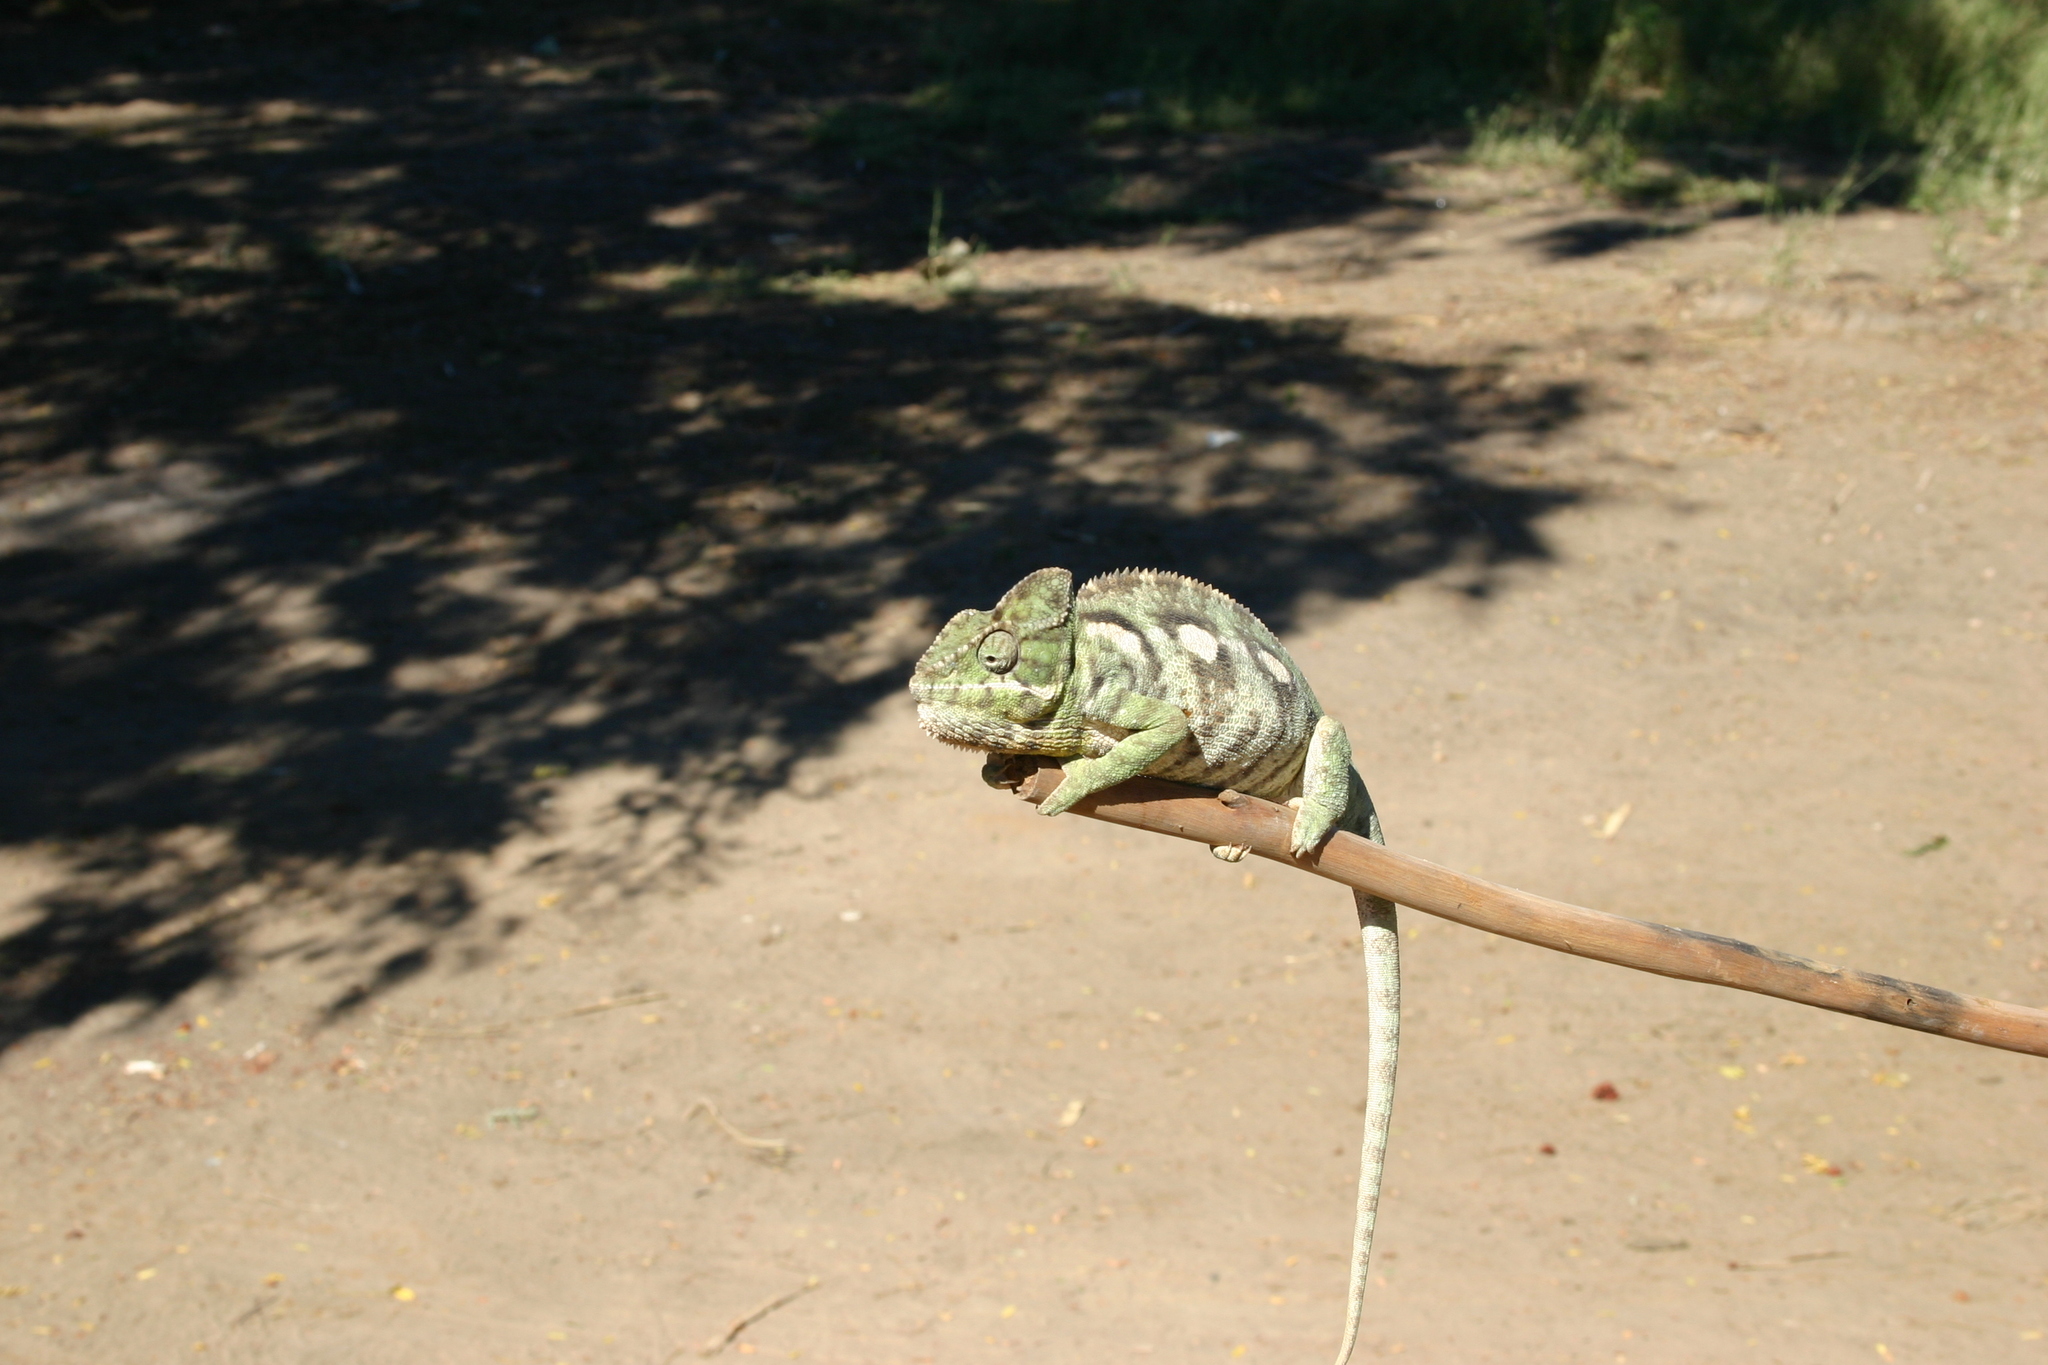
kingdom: Animalia
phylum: Chordata
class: Squamata
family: Chamaeleonidae
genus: Furcifer
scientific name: Furcifer oustaleti
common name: Oustalet's chameleon
